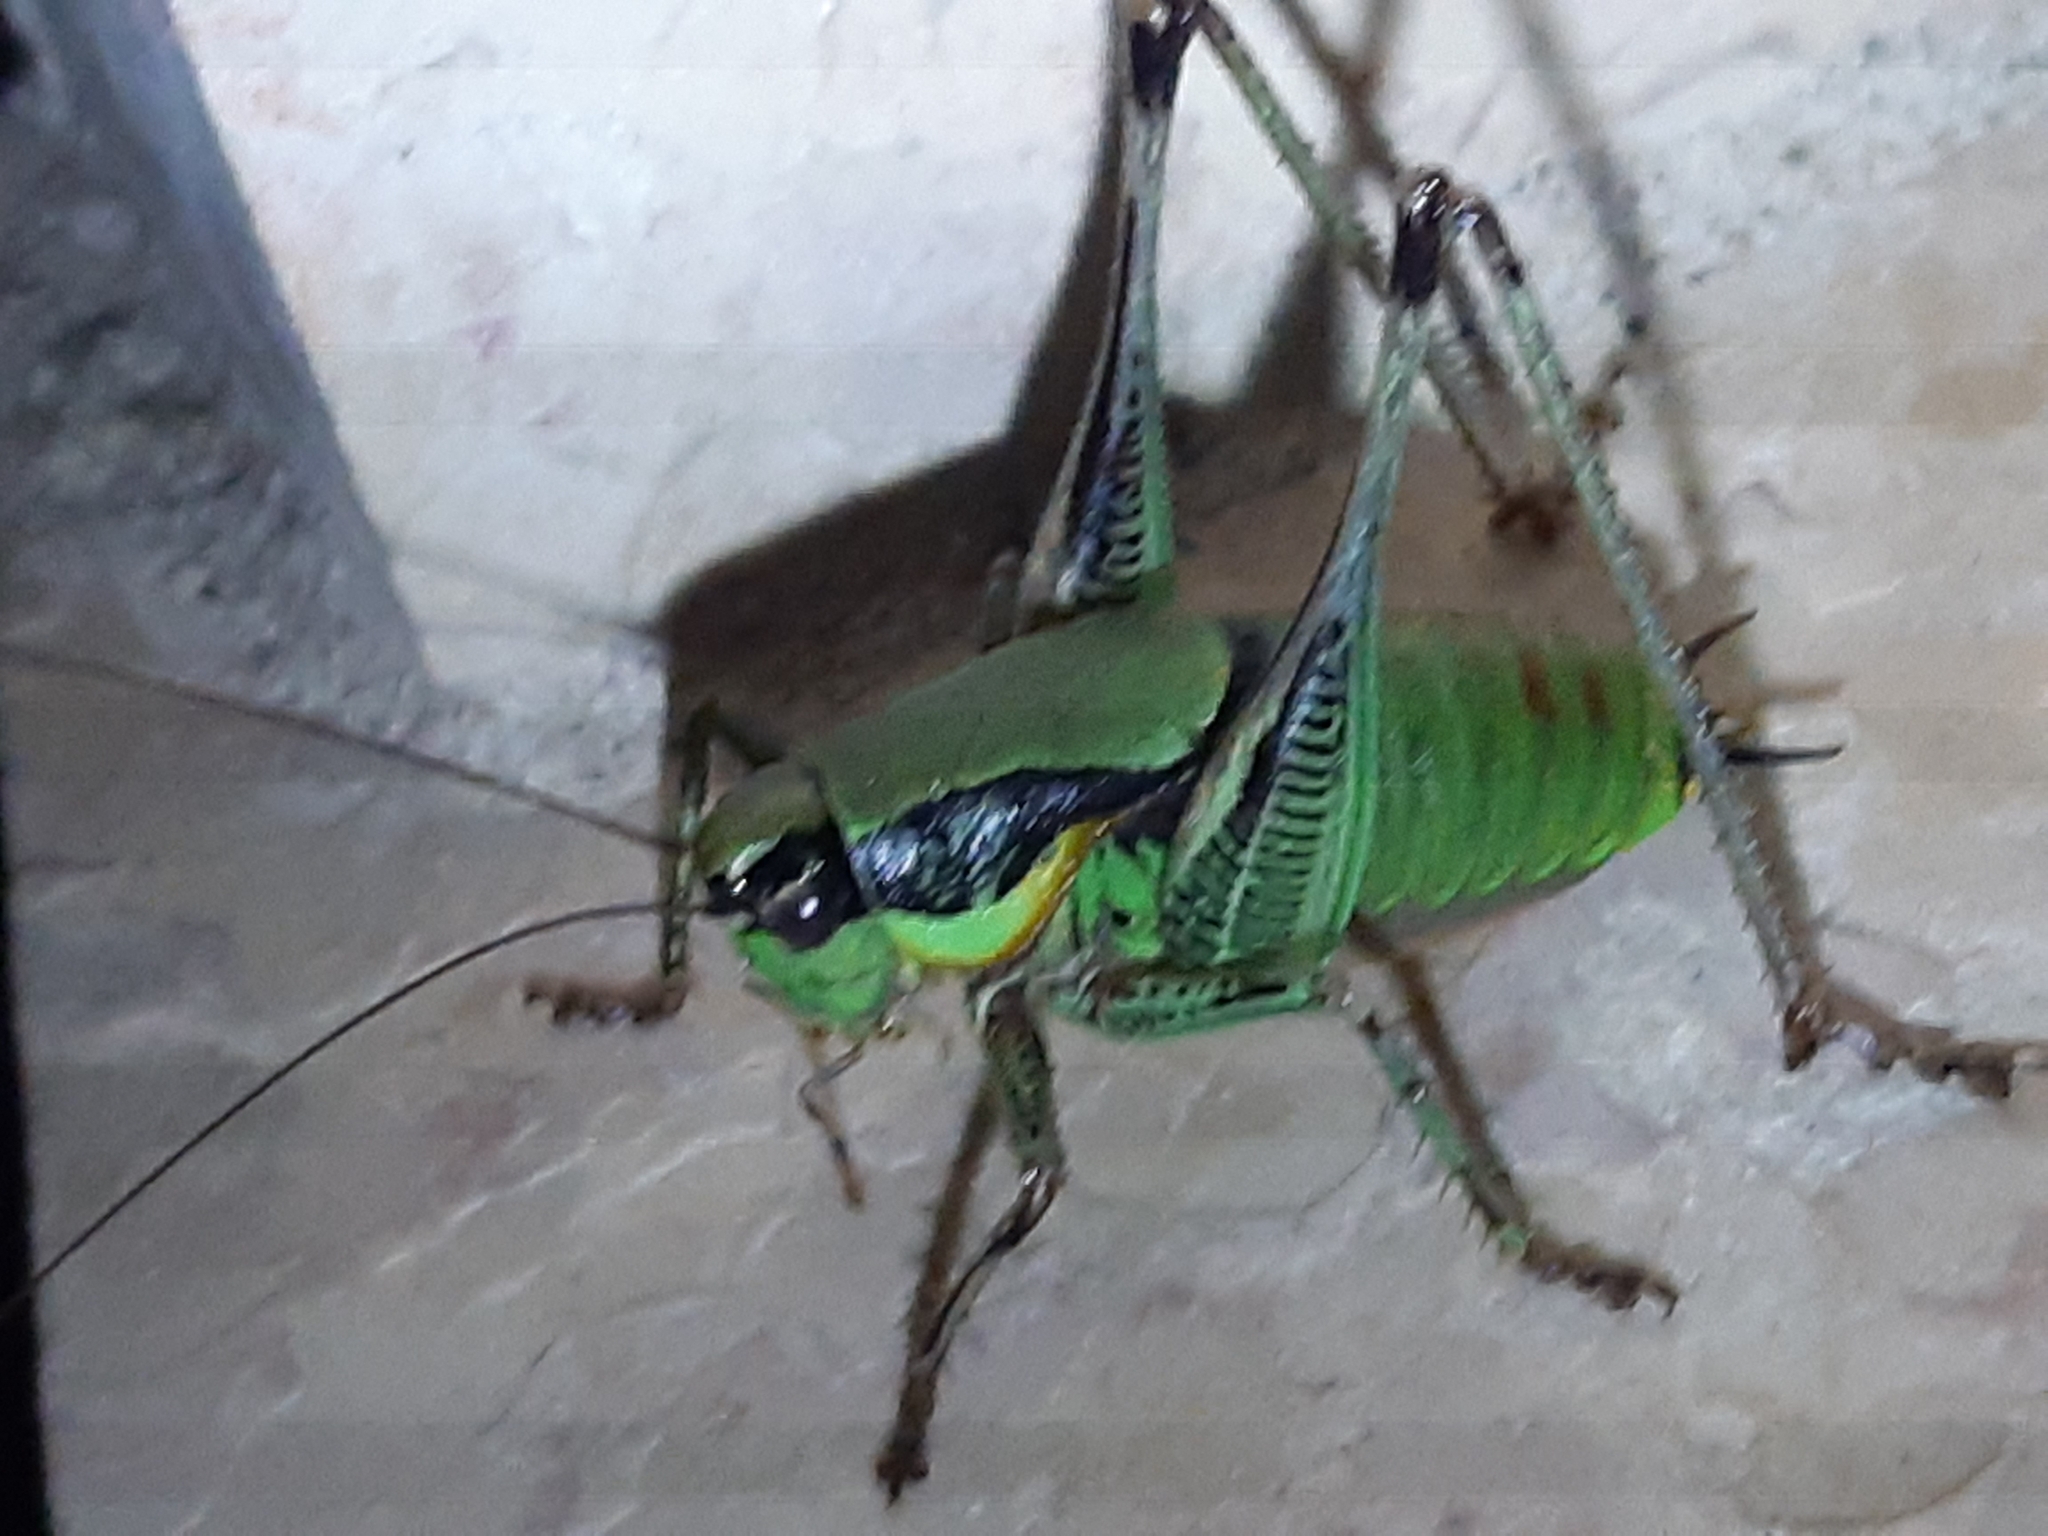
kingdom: Animalia
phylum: Arthropoda
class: Insecta
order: Orthoptera
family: Tettigoniidae
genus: Eupholidoptera
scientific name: Eupholidoptera schmidti
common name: Schmidt's marbled bush-cricket
